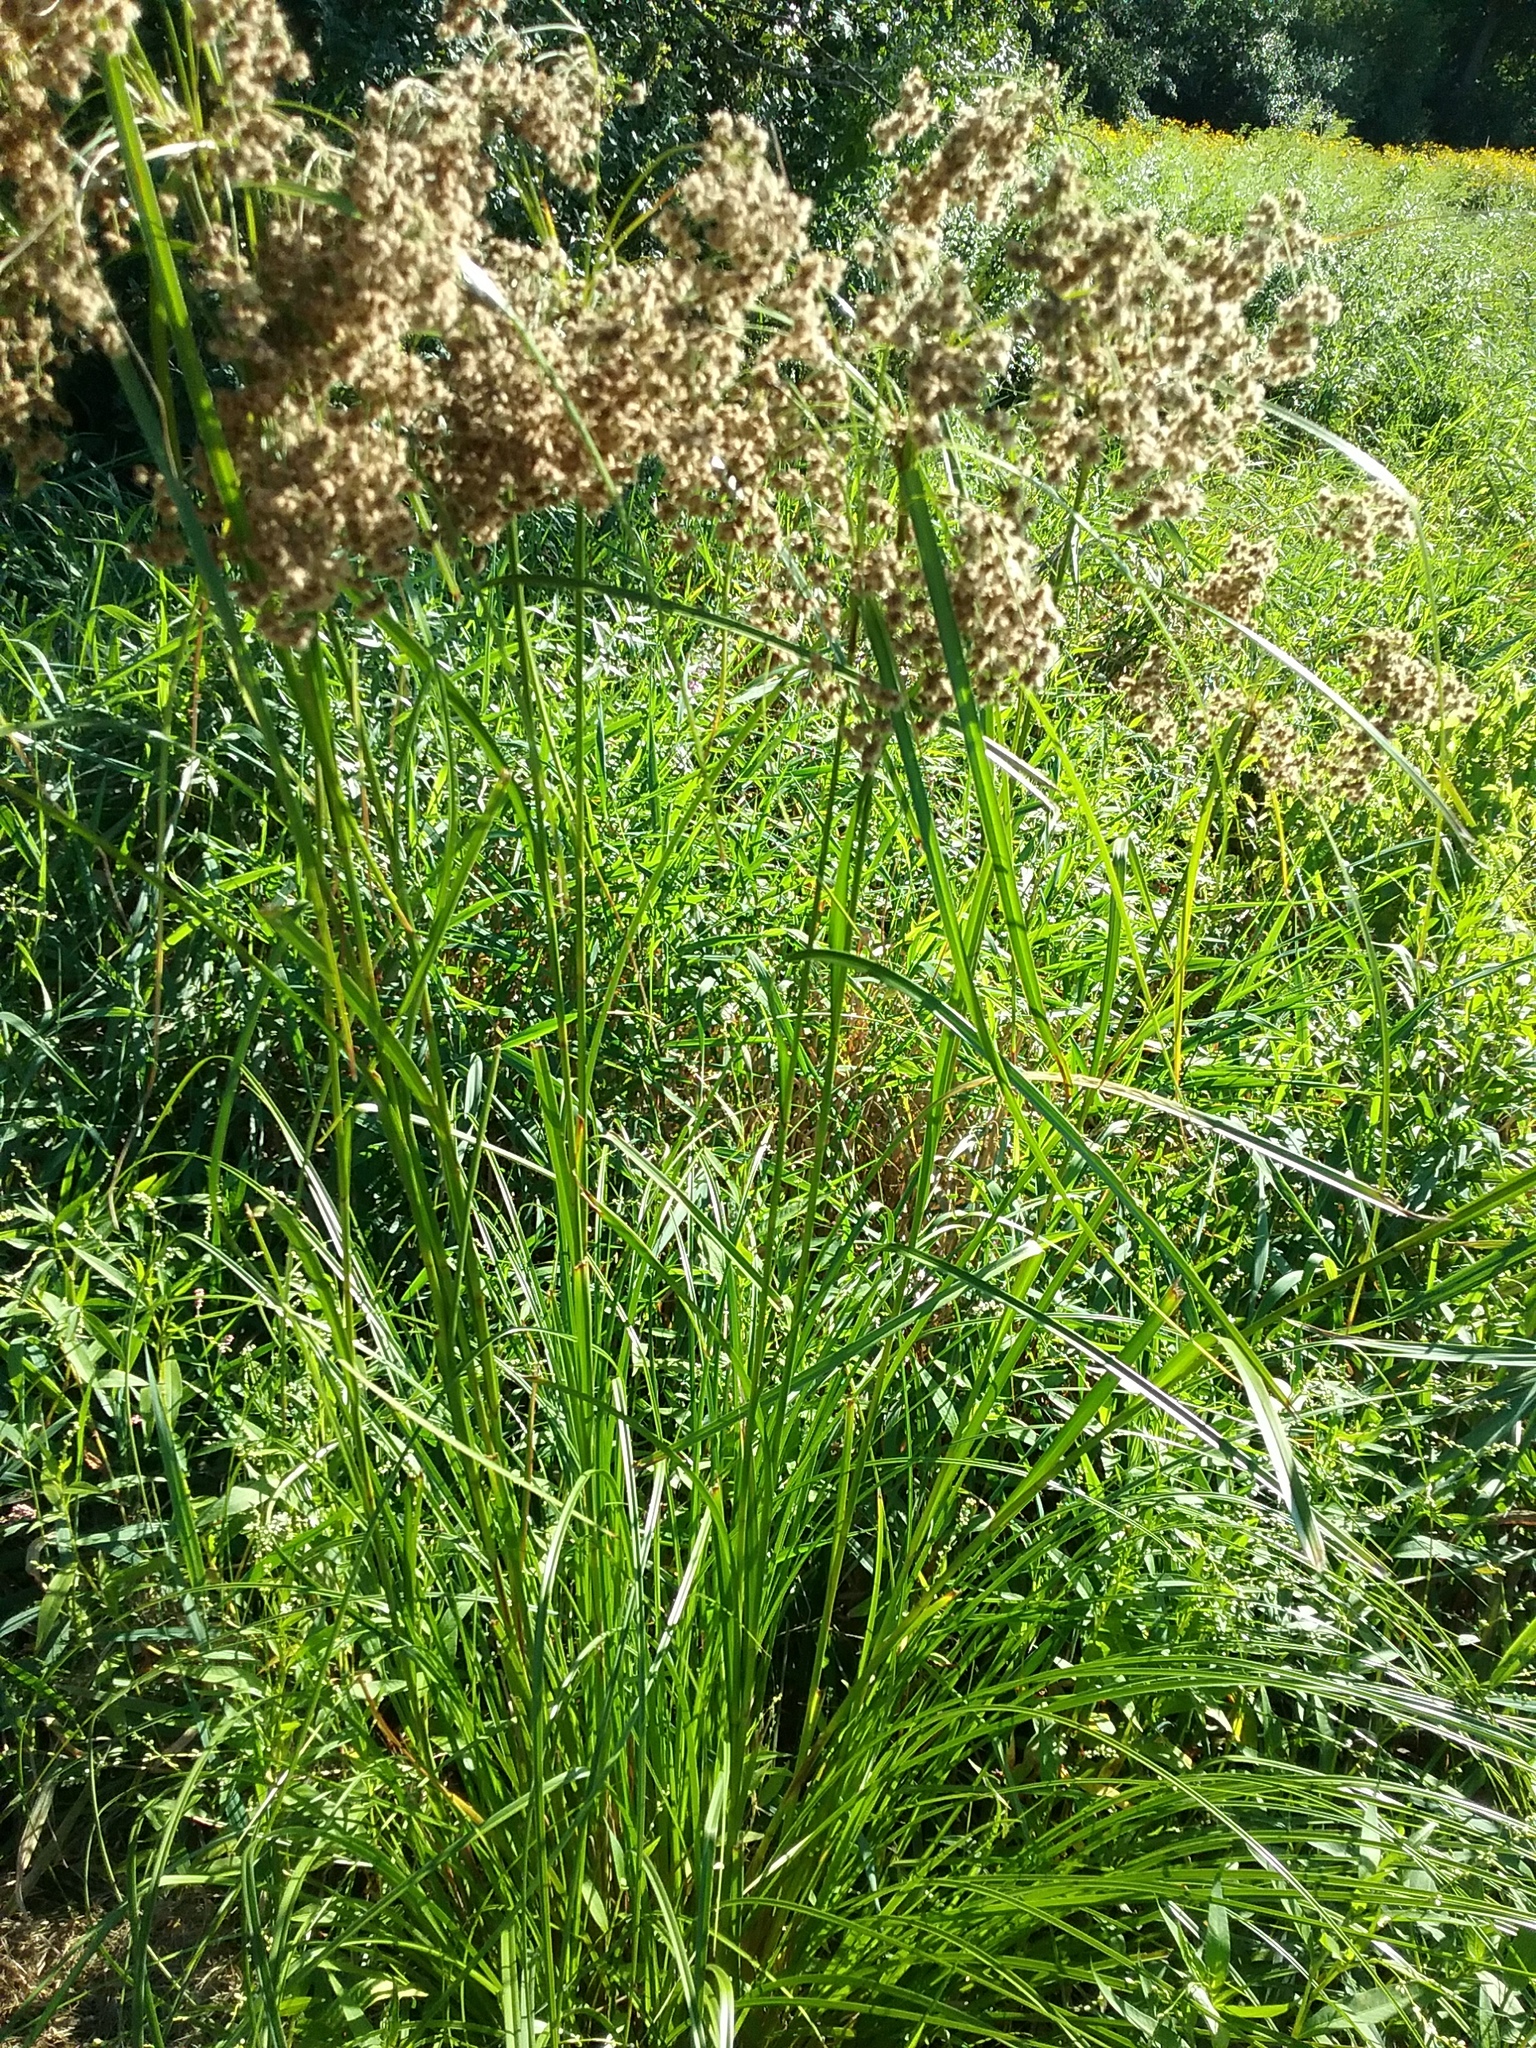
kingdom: Plantae
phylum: Tracheophyta
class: Liliopsida
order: Poales
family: Cyperaceae
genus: Scirpus
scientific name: Scirpus cyperinus
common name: Black-sheathed bulrush
